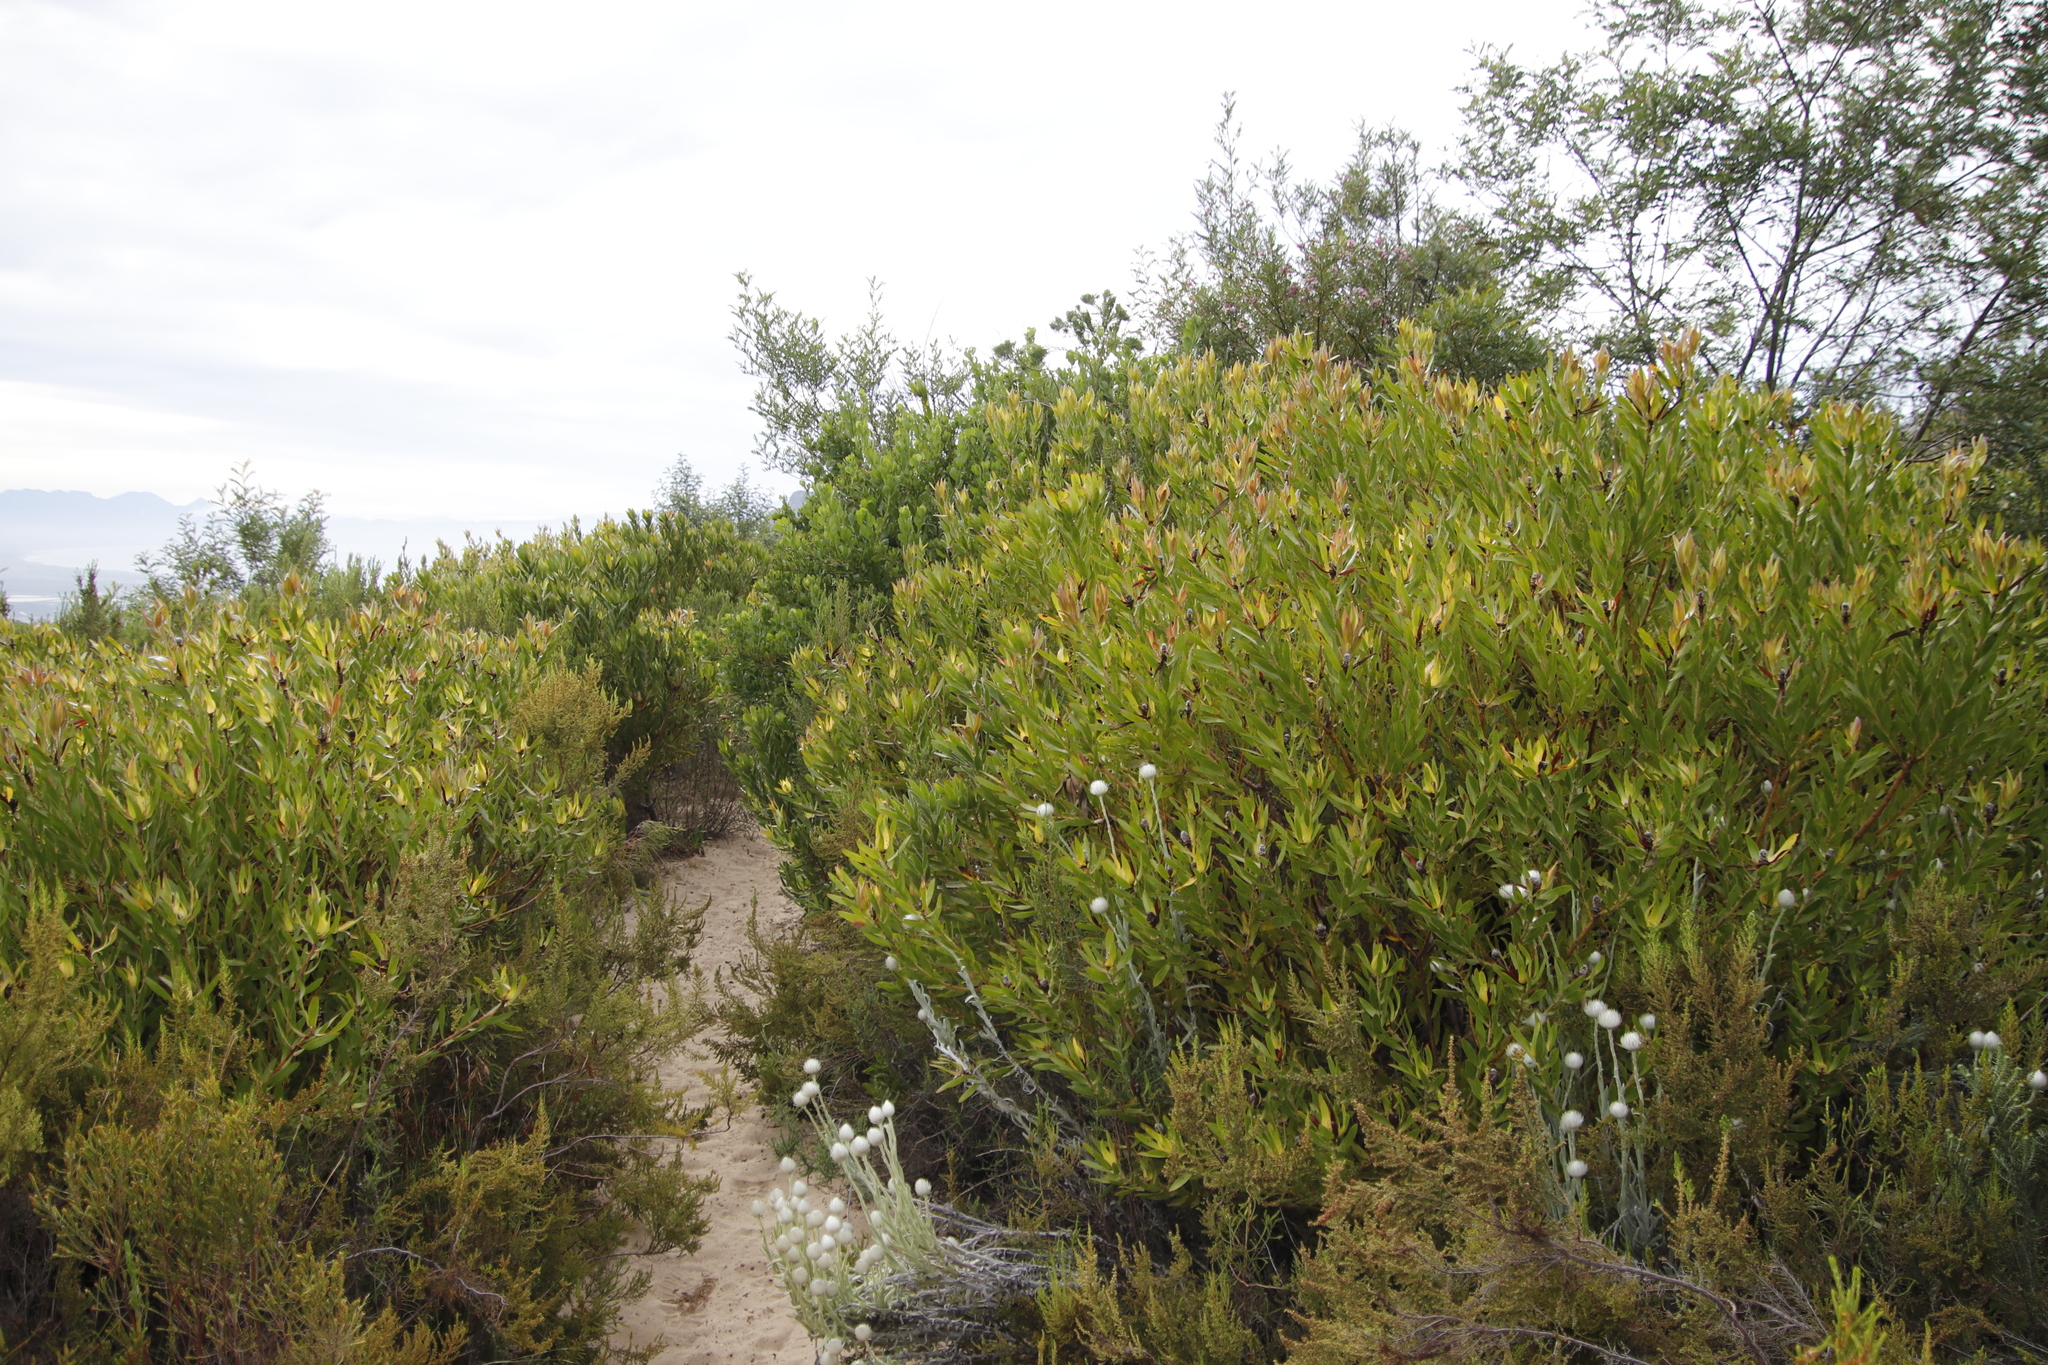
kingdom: Plantae
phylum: Tracheophyta
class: Magnoliopsida
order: Proteales
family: Proteaceae
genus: Leucadendron
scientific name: Leucadendron laureolum
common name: Golden sunshinebush
